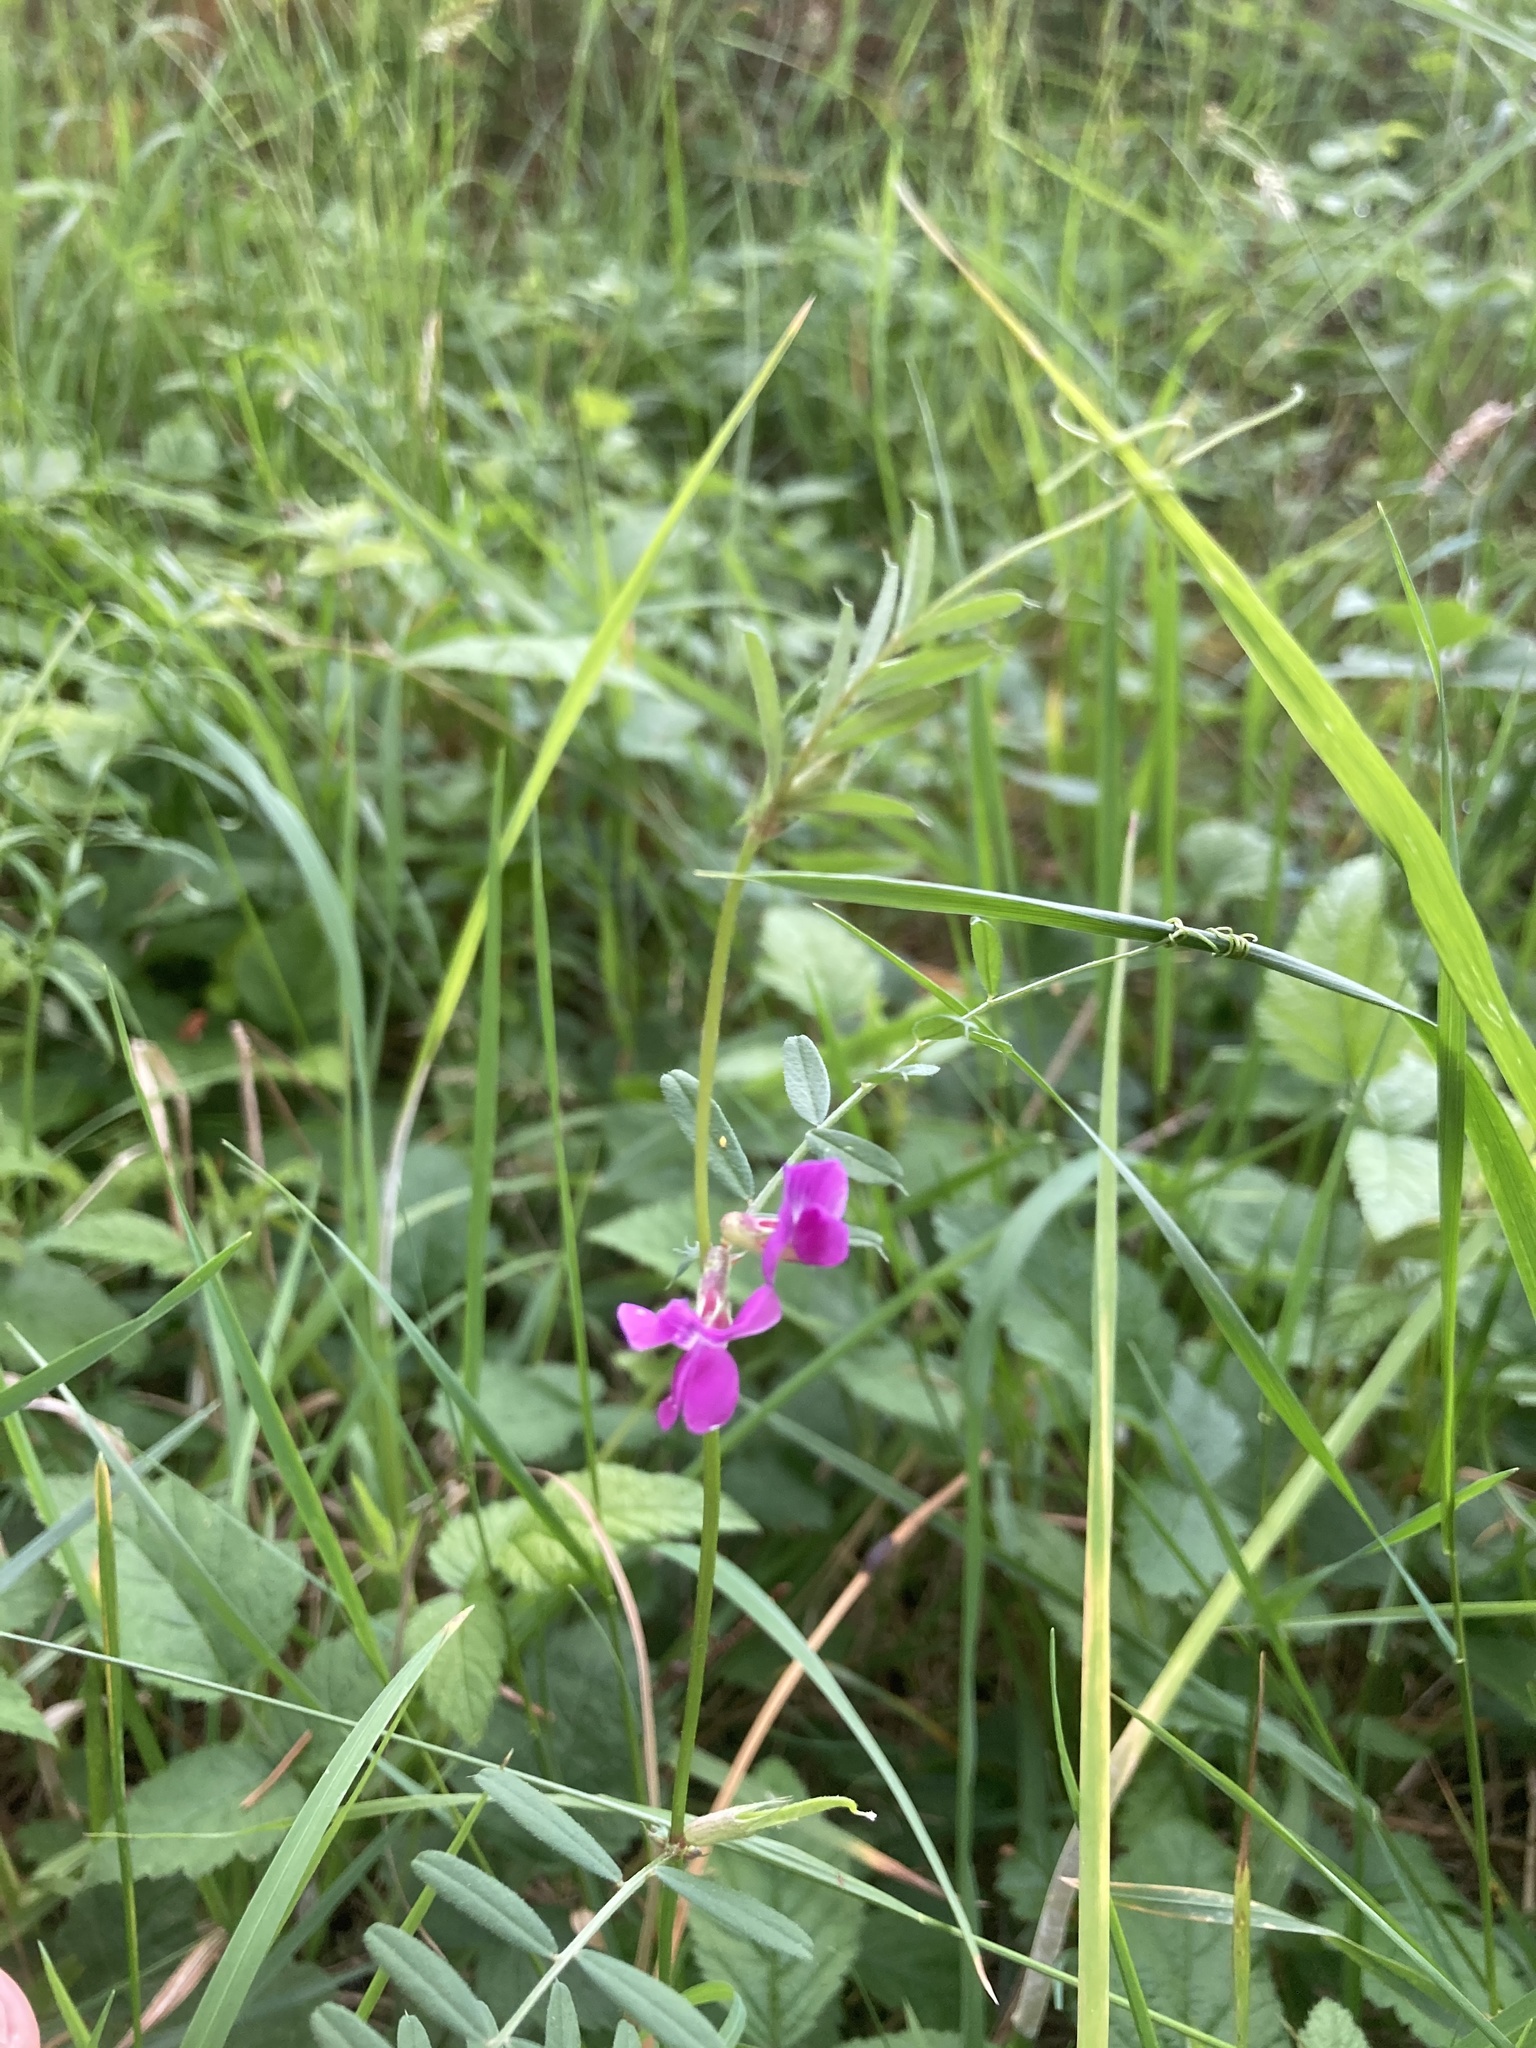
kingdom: Plantae
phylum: Tracheophyta
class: Magnoliopsida
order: Fabales
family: Fabaceae
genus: Vicia
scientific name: Vicia sativa
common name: Garden vetch
